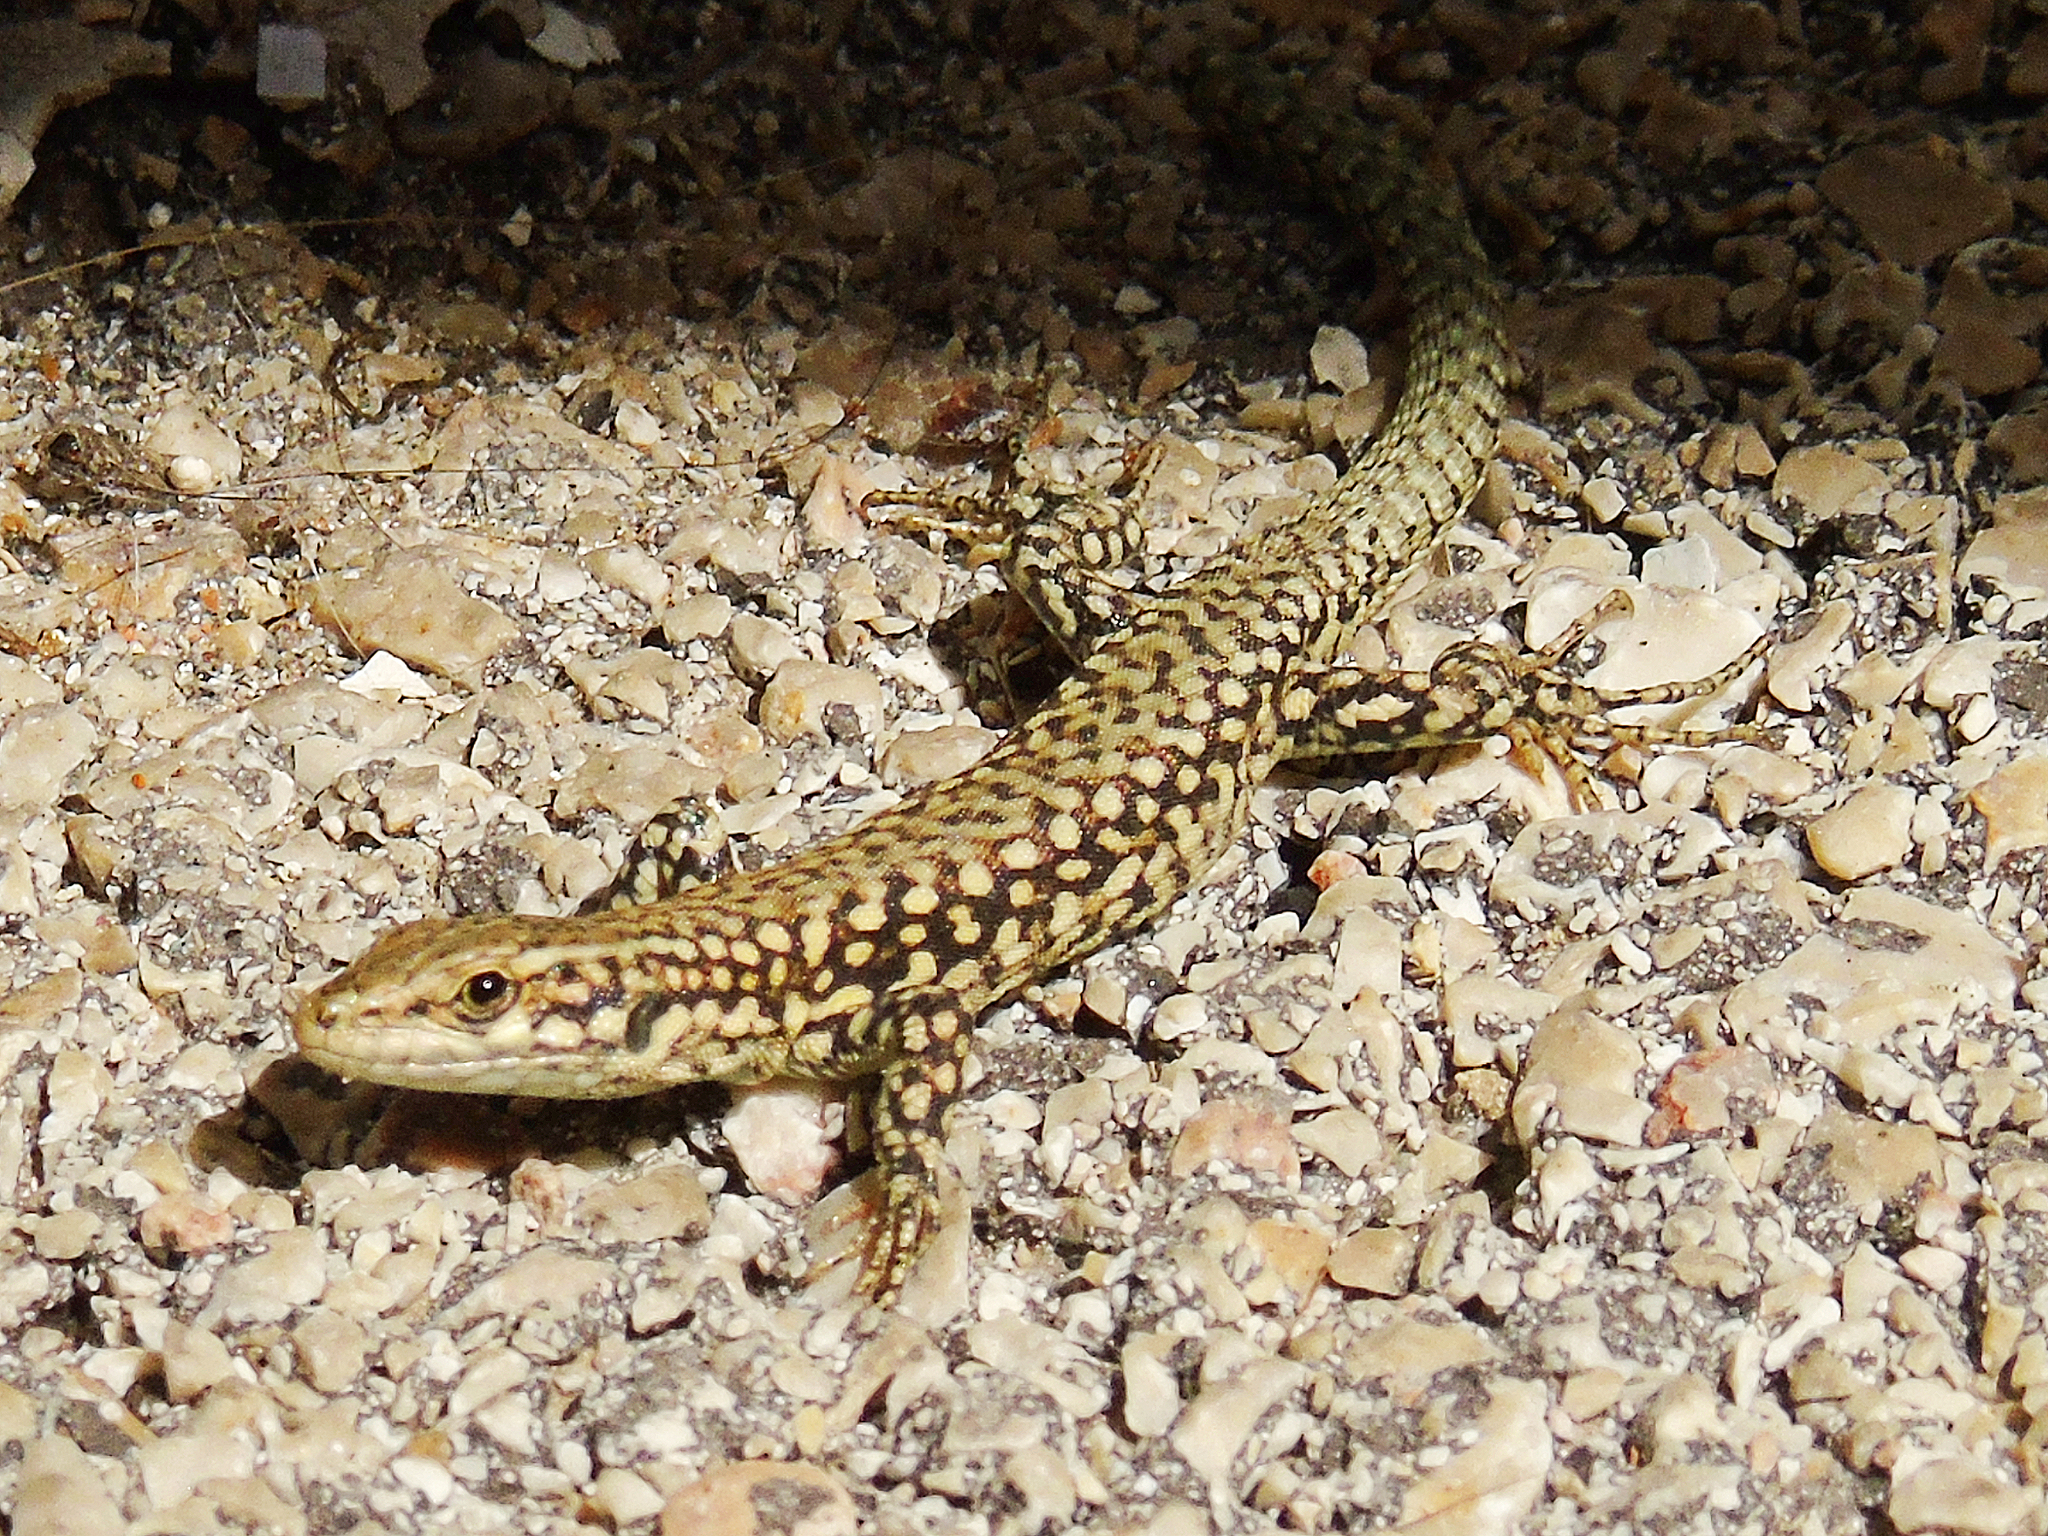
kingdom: Animalia
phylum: Chordata
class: Squamata
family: Lacertidae
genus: Podarcis
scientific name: Podarcis muralis
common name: Common wall lizard
